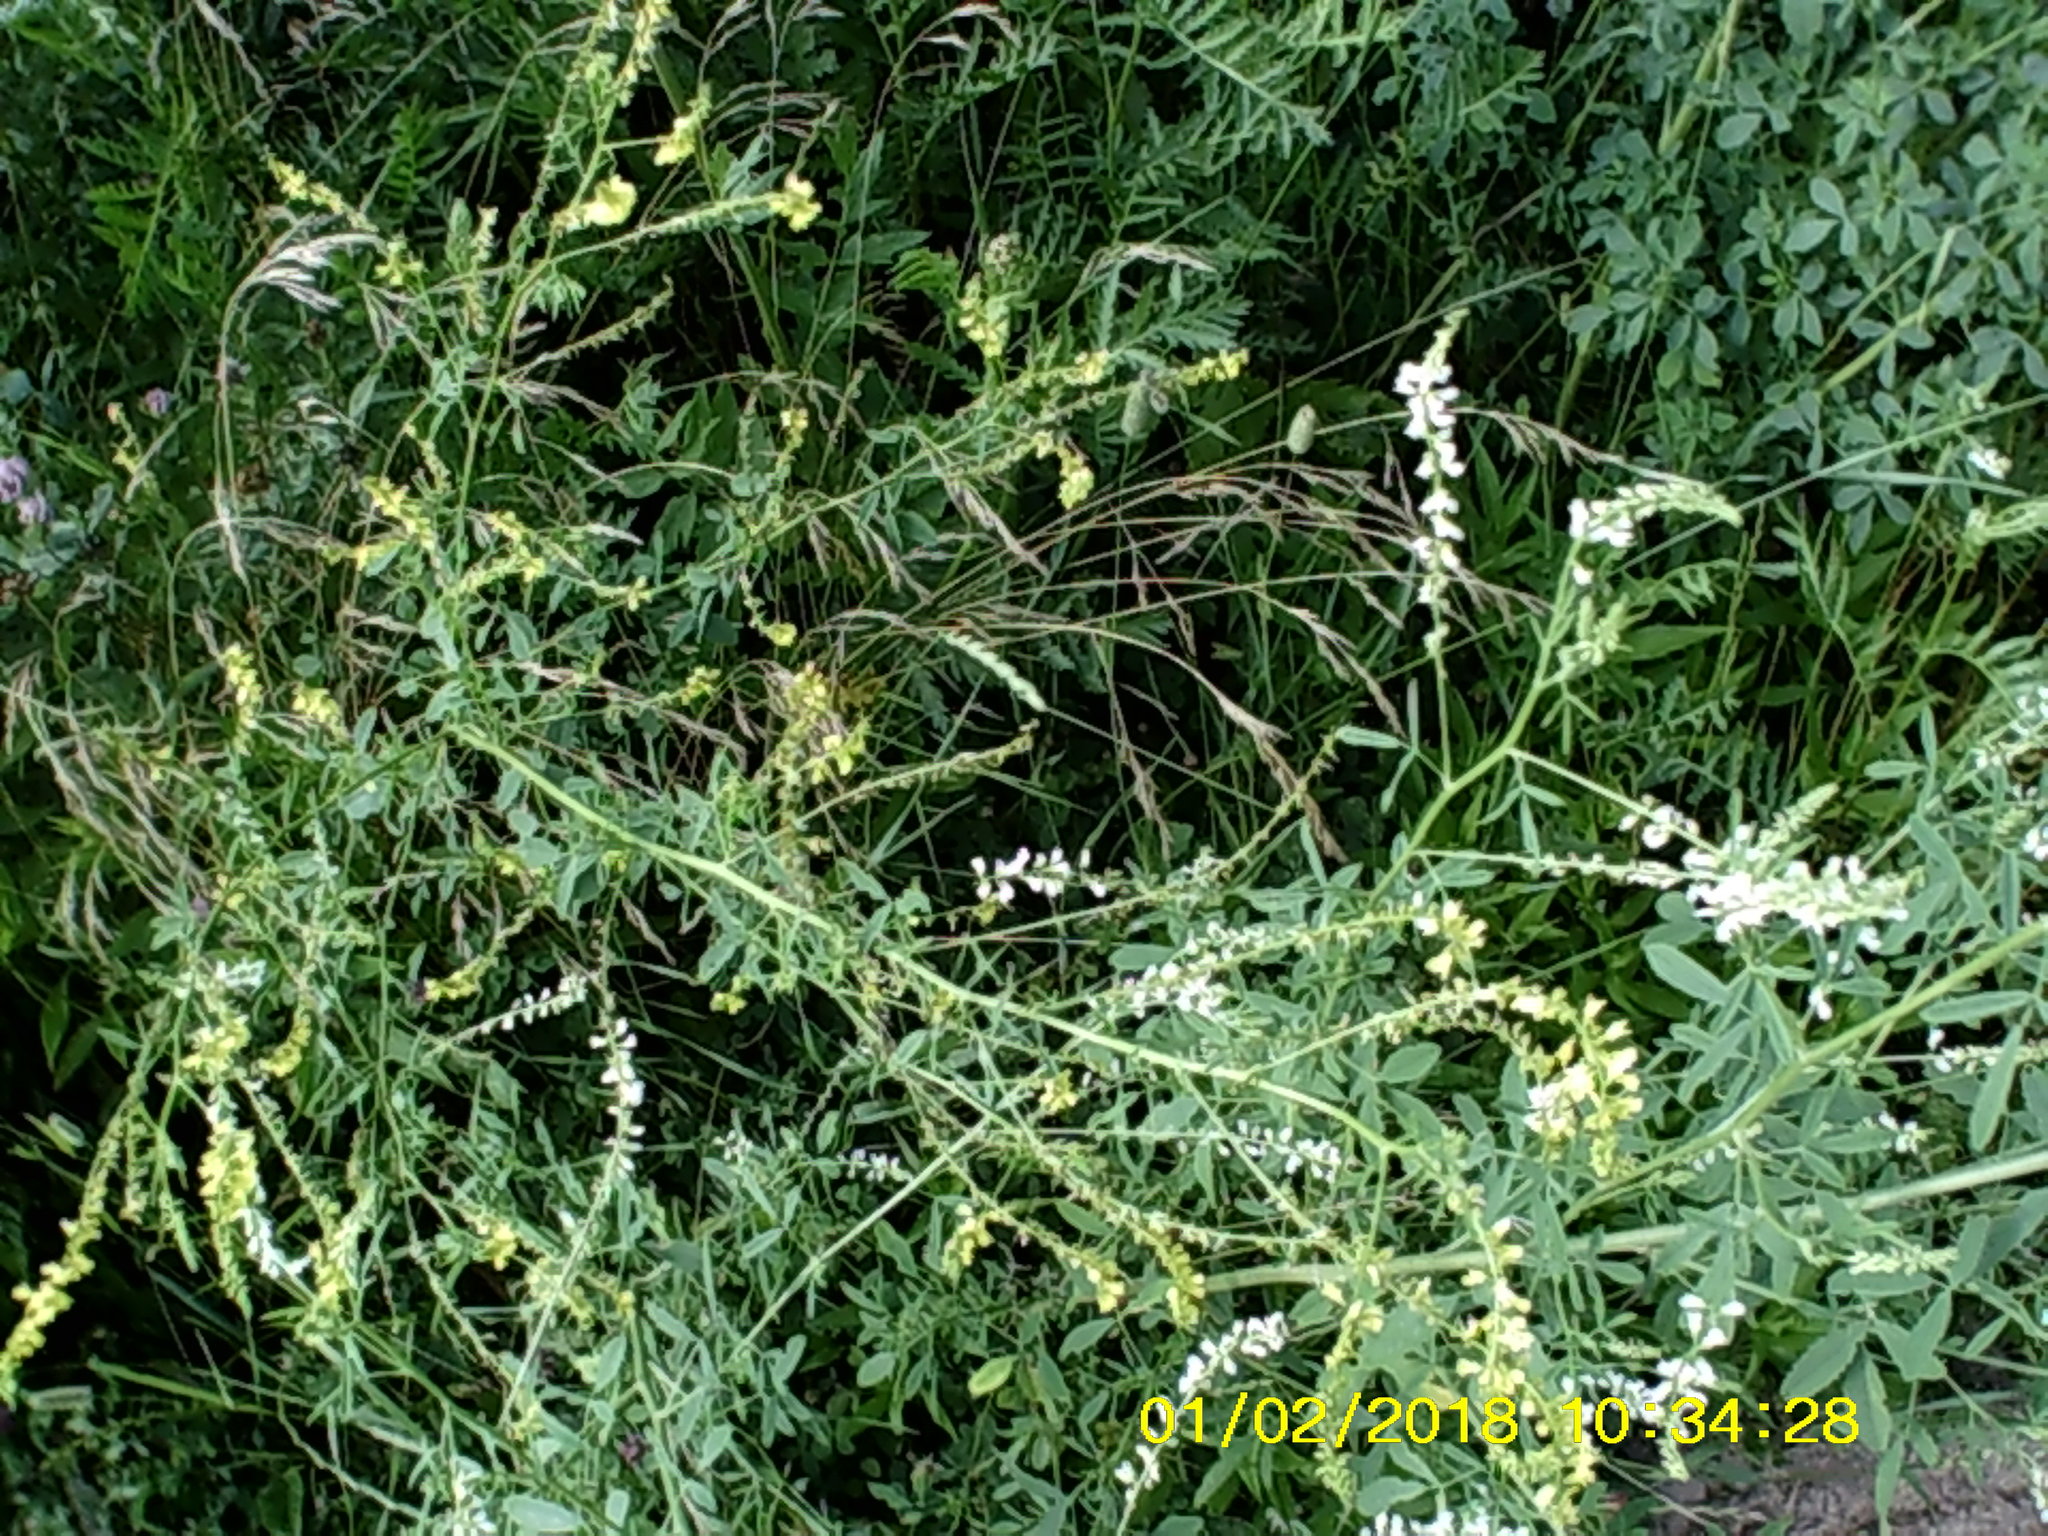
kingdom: Plantae
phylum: Tracheophyta
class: Magnoliopsida
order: Fabales
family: Fabaceae
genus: Melilotus
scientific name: Melilotus officinalis
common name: Sweetclover
